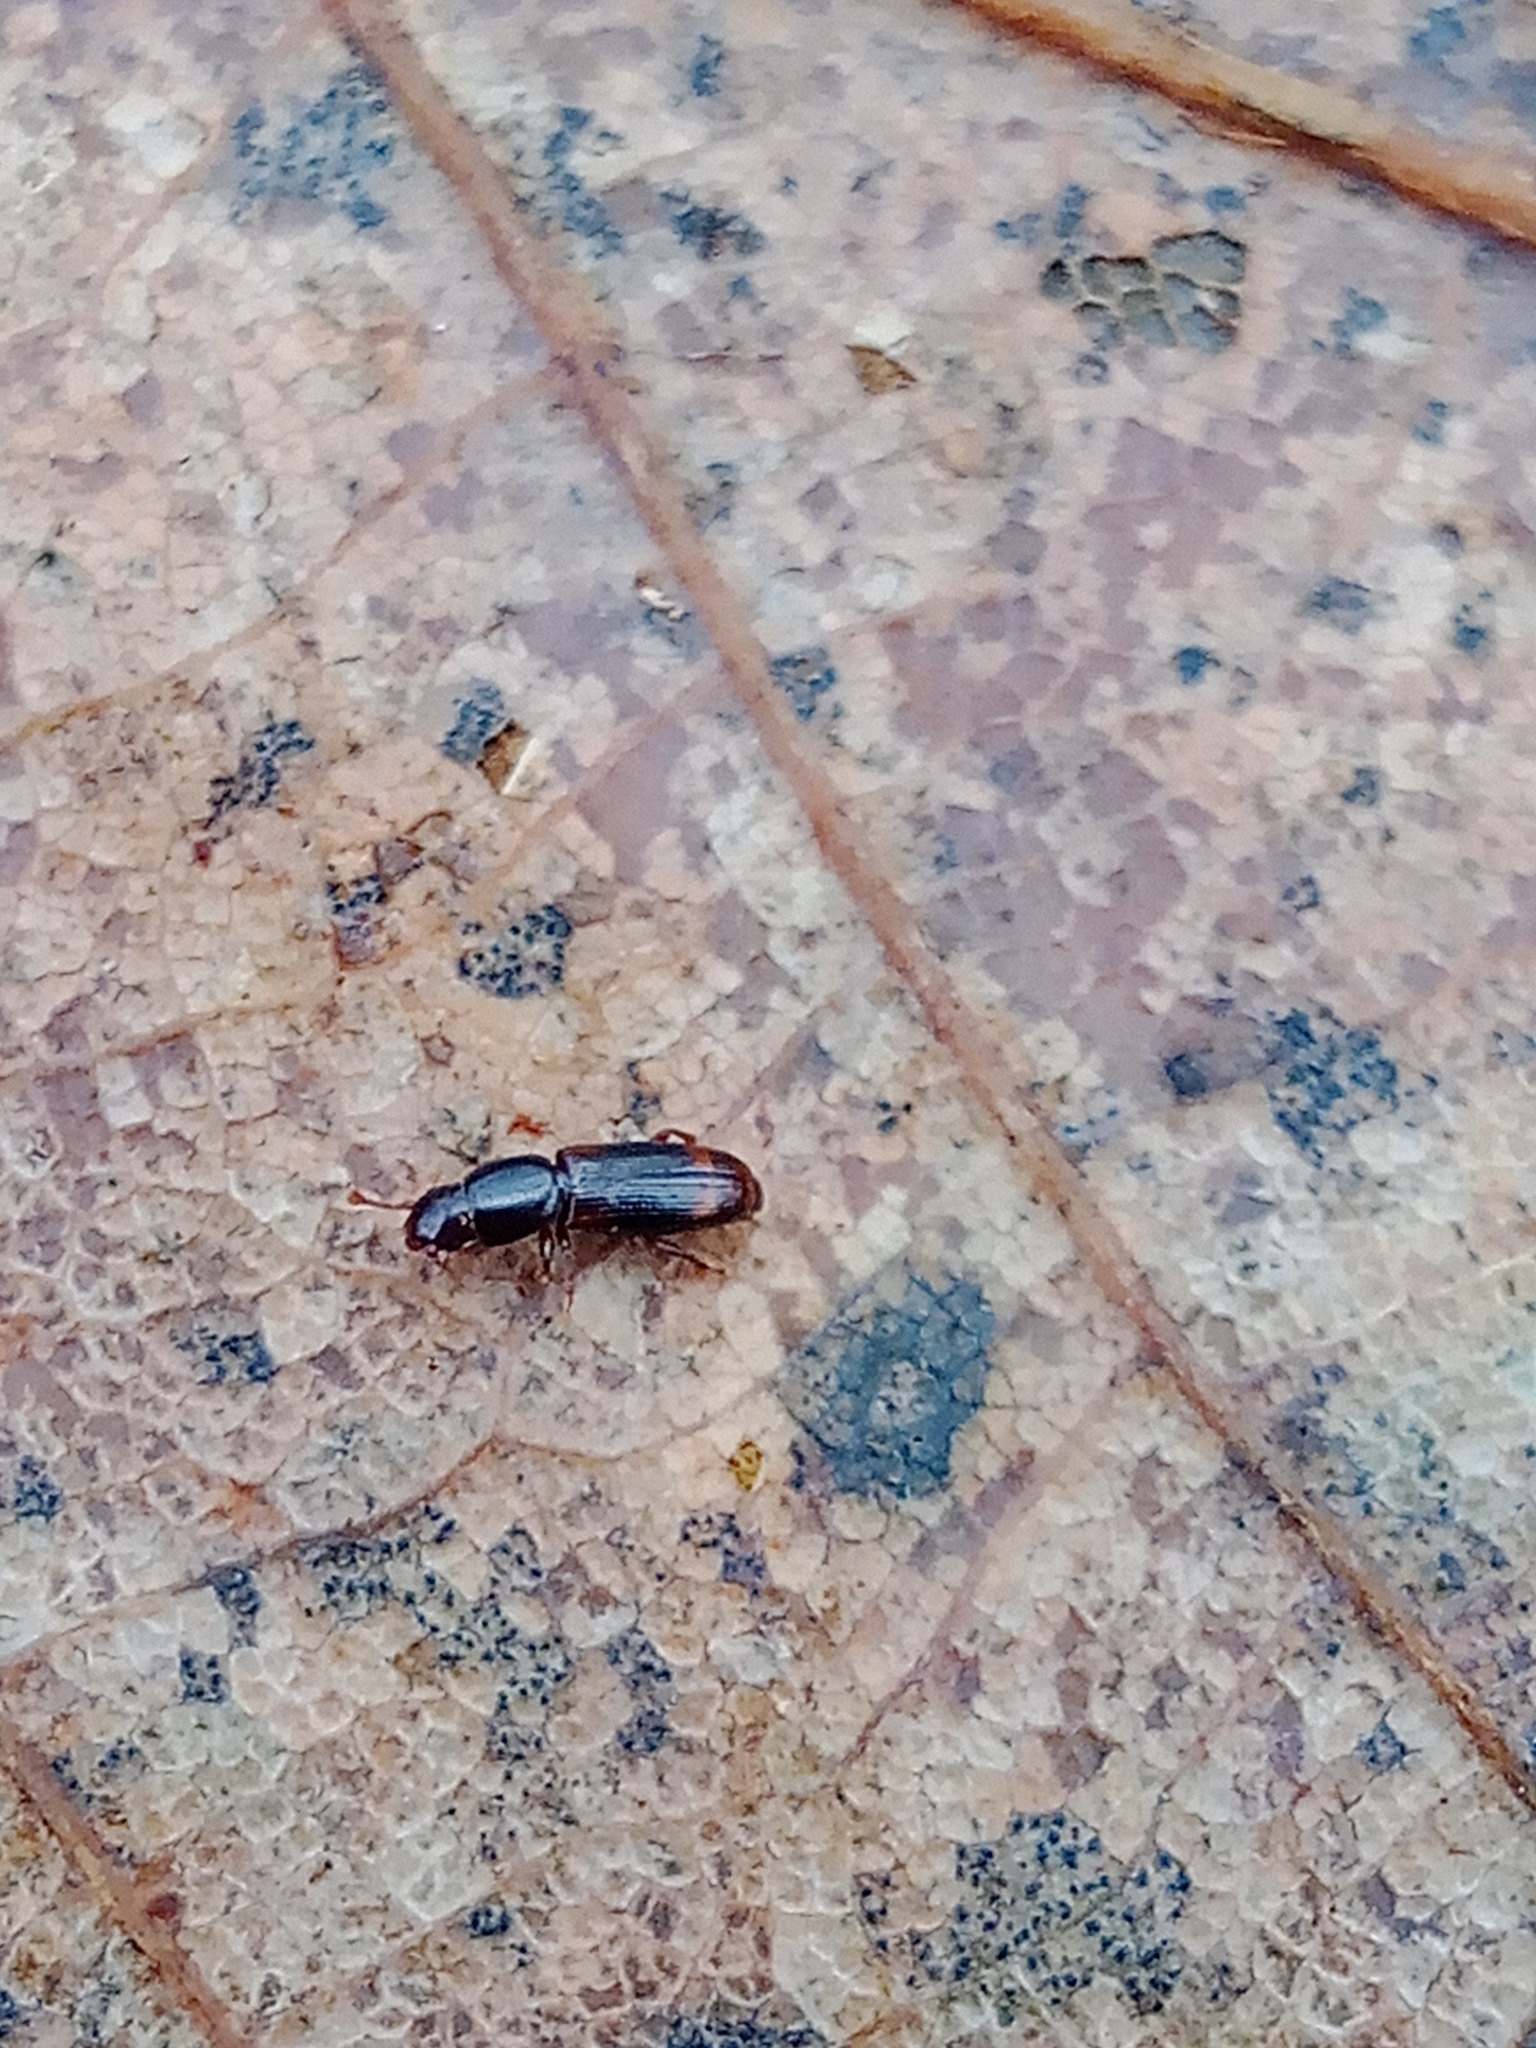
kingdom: Animalia
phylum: Arthropoda
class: Insecta
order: Coleoptera
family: Monotomidae
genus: Rhizophagus
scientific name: Rhizophagus bipustulatus
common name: Root-eating beetle
